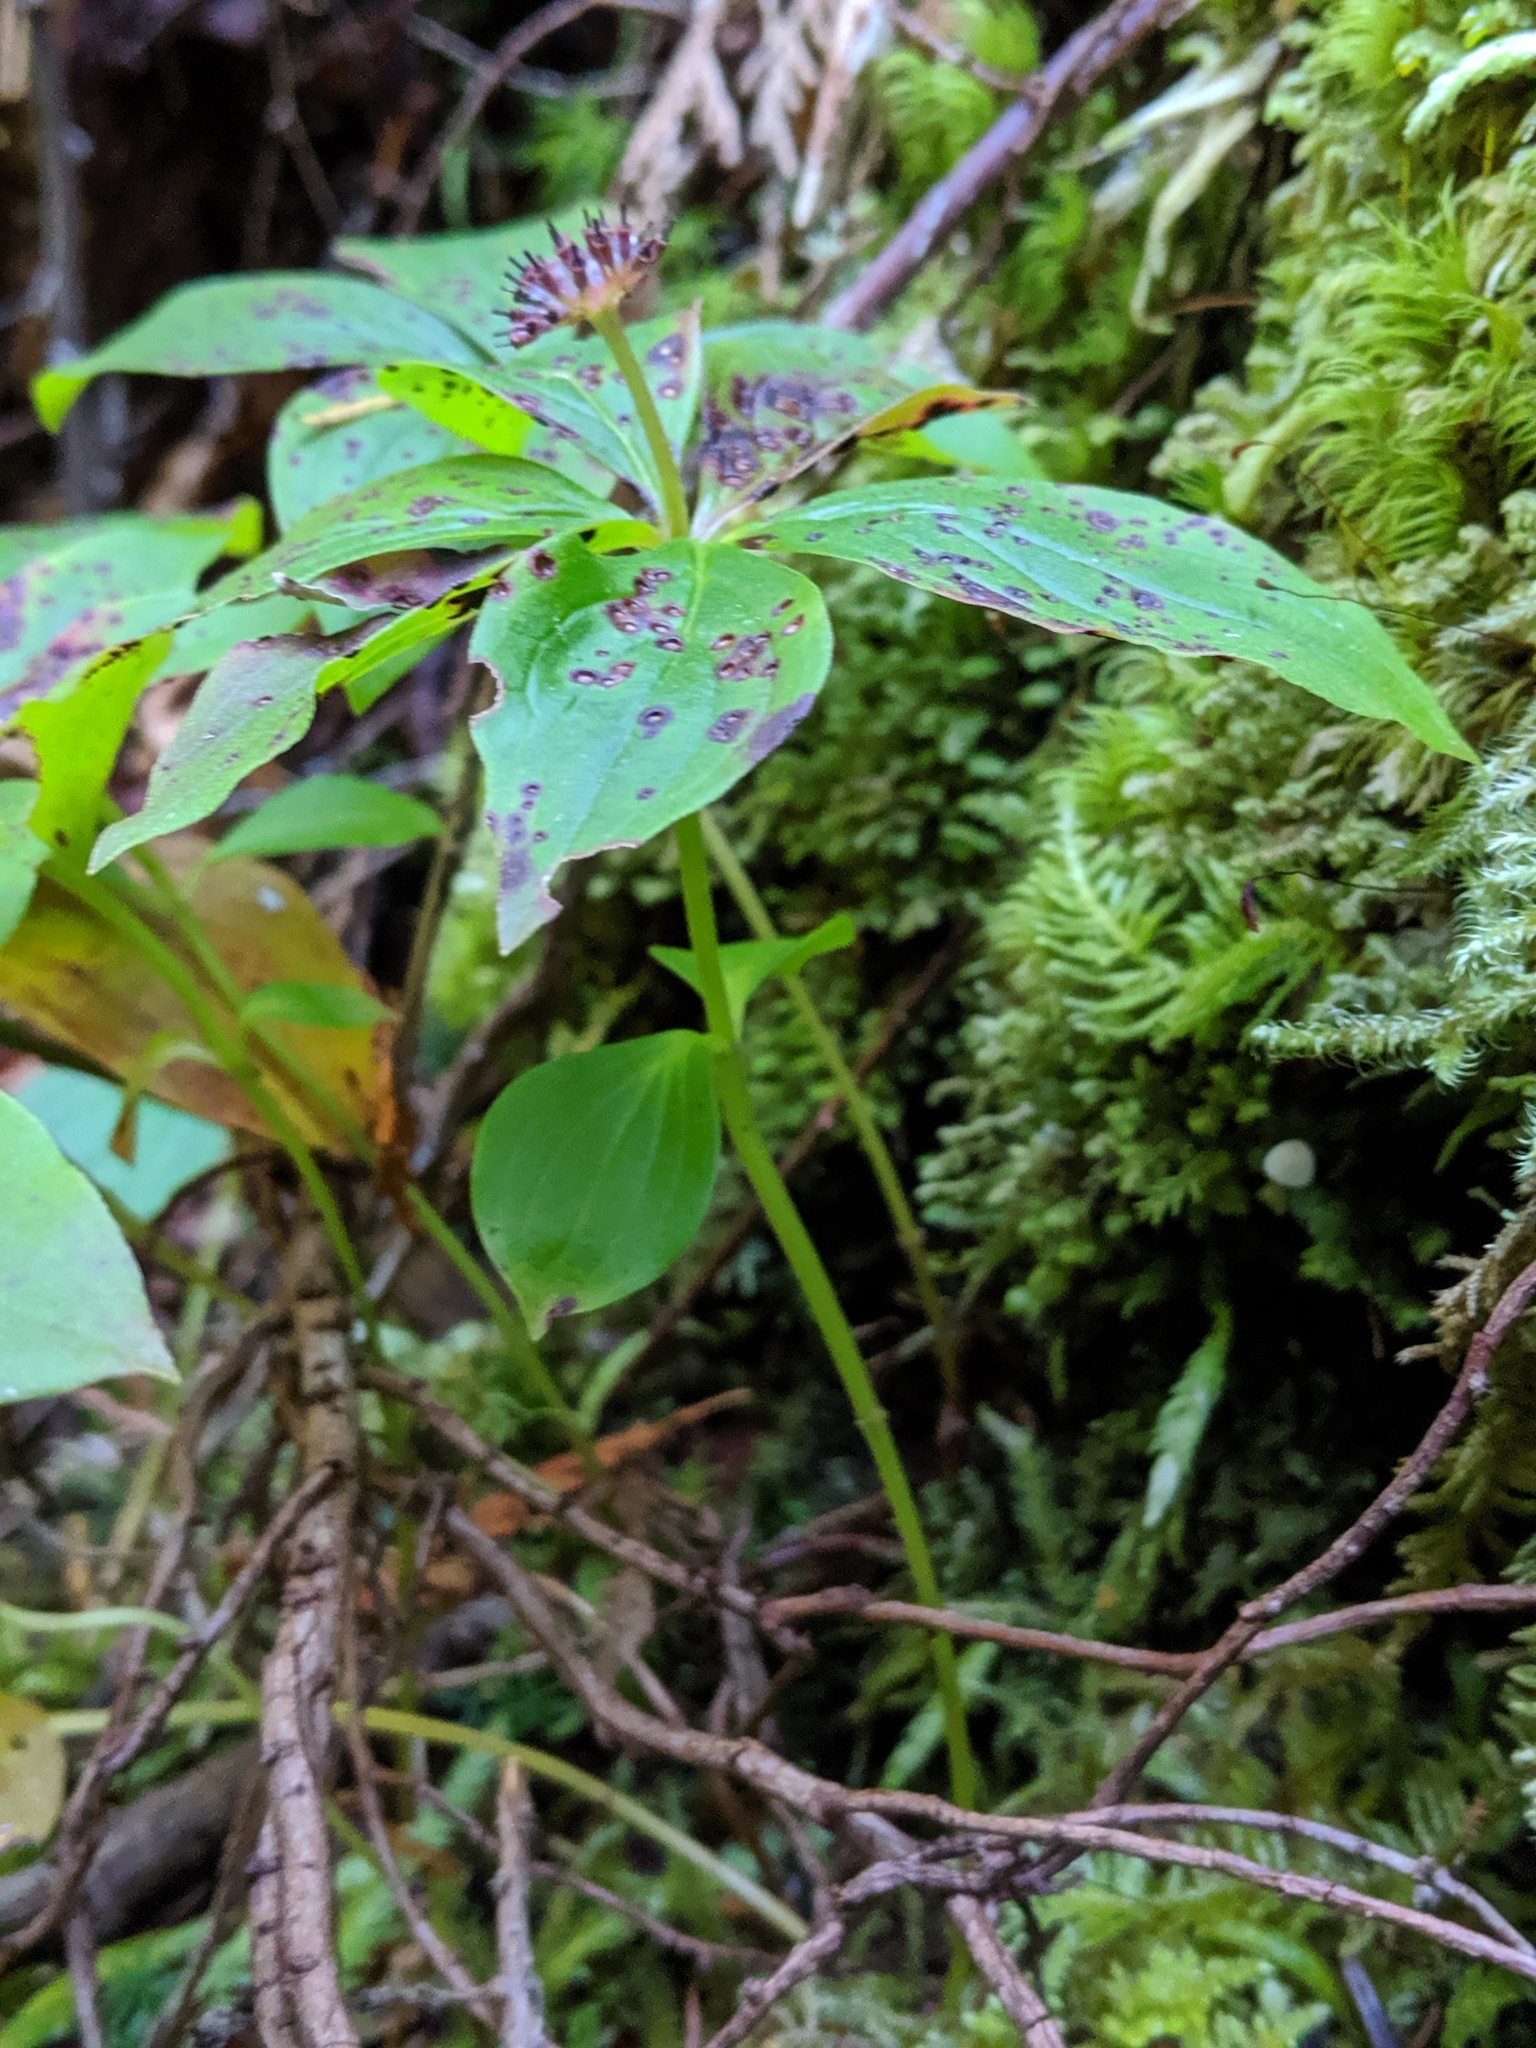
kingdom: Plantae
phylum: Tracheophyta
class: Magnoliopsida
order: Cornales
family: Cornaceae
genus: Cornus
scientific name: Cornus unalaschkensis
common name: Alaska bunchberry
